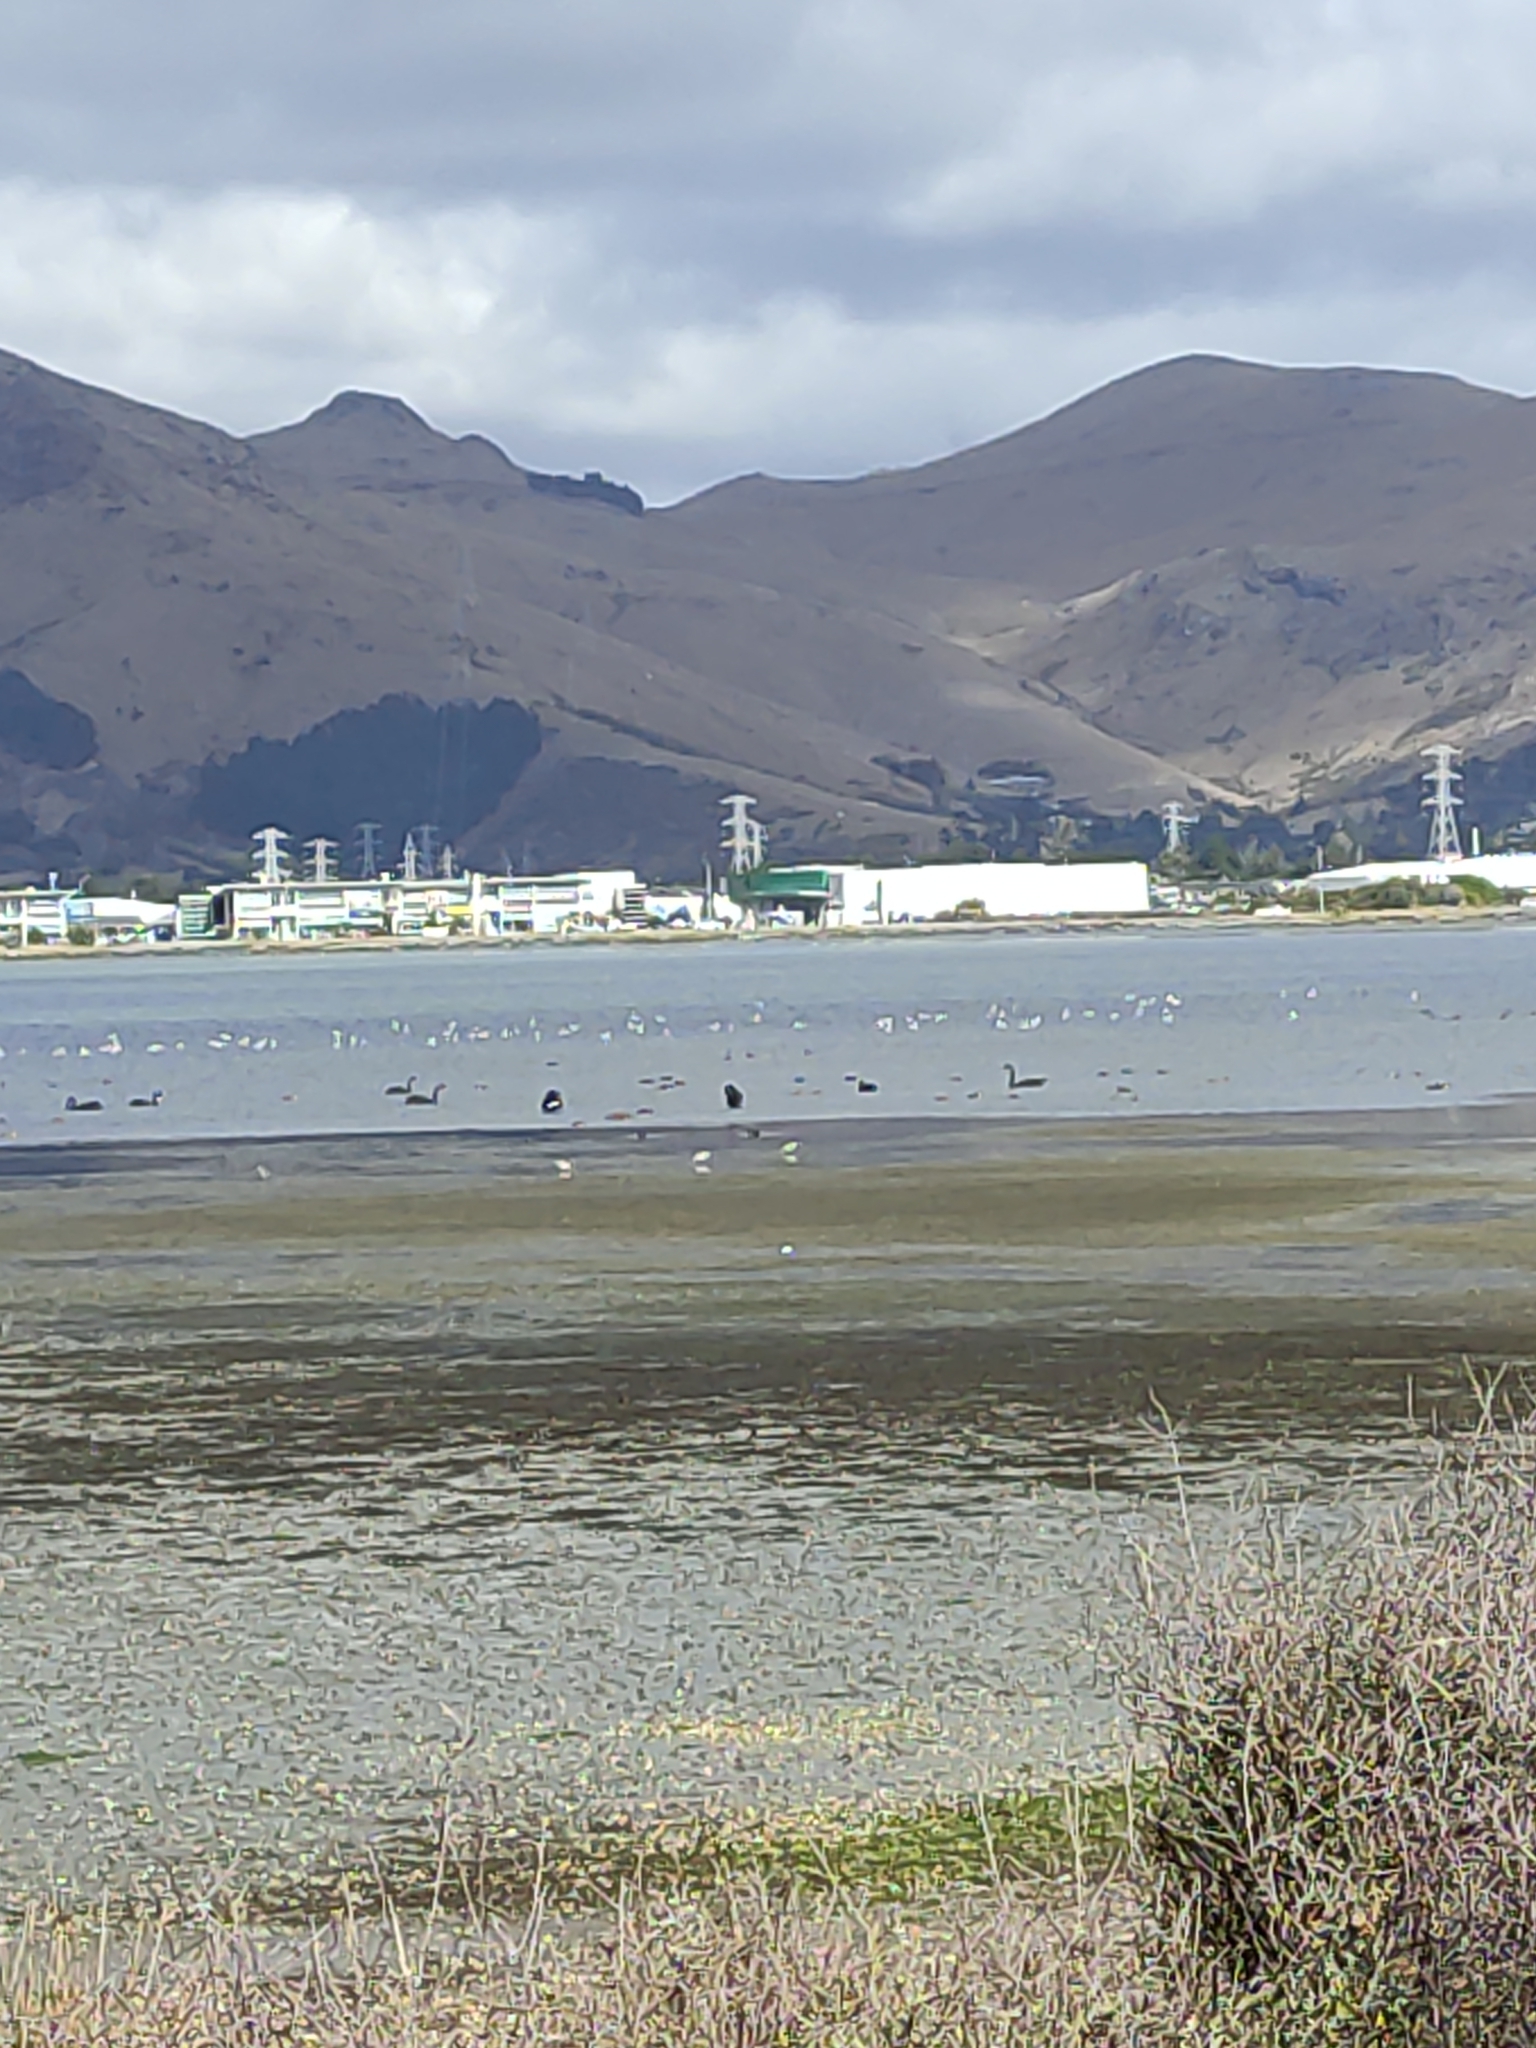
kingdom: Animalia
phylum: Chordata
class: Aves
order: Anseriformes
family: Anatidae
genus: Cygnus
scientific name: Cygnus atratus
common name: Black swan
